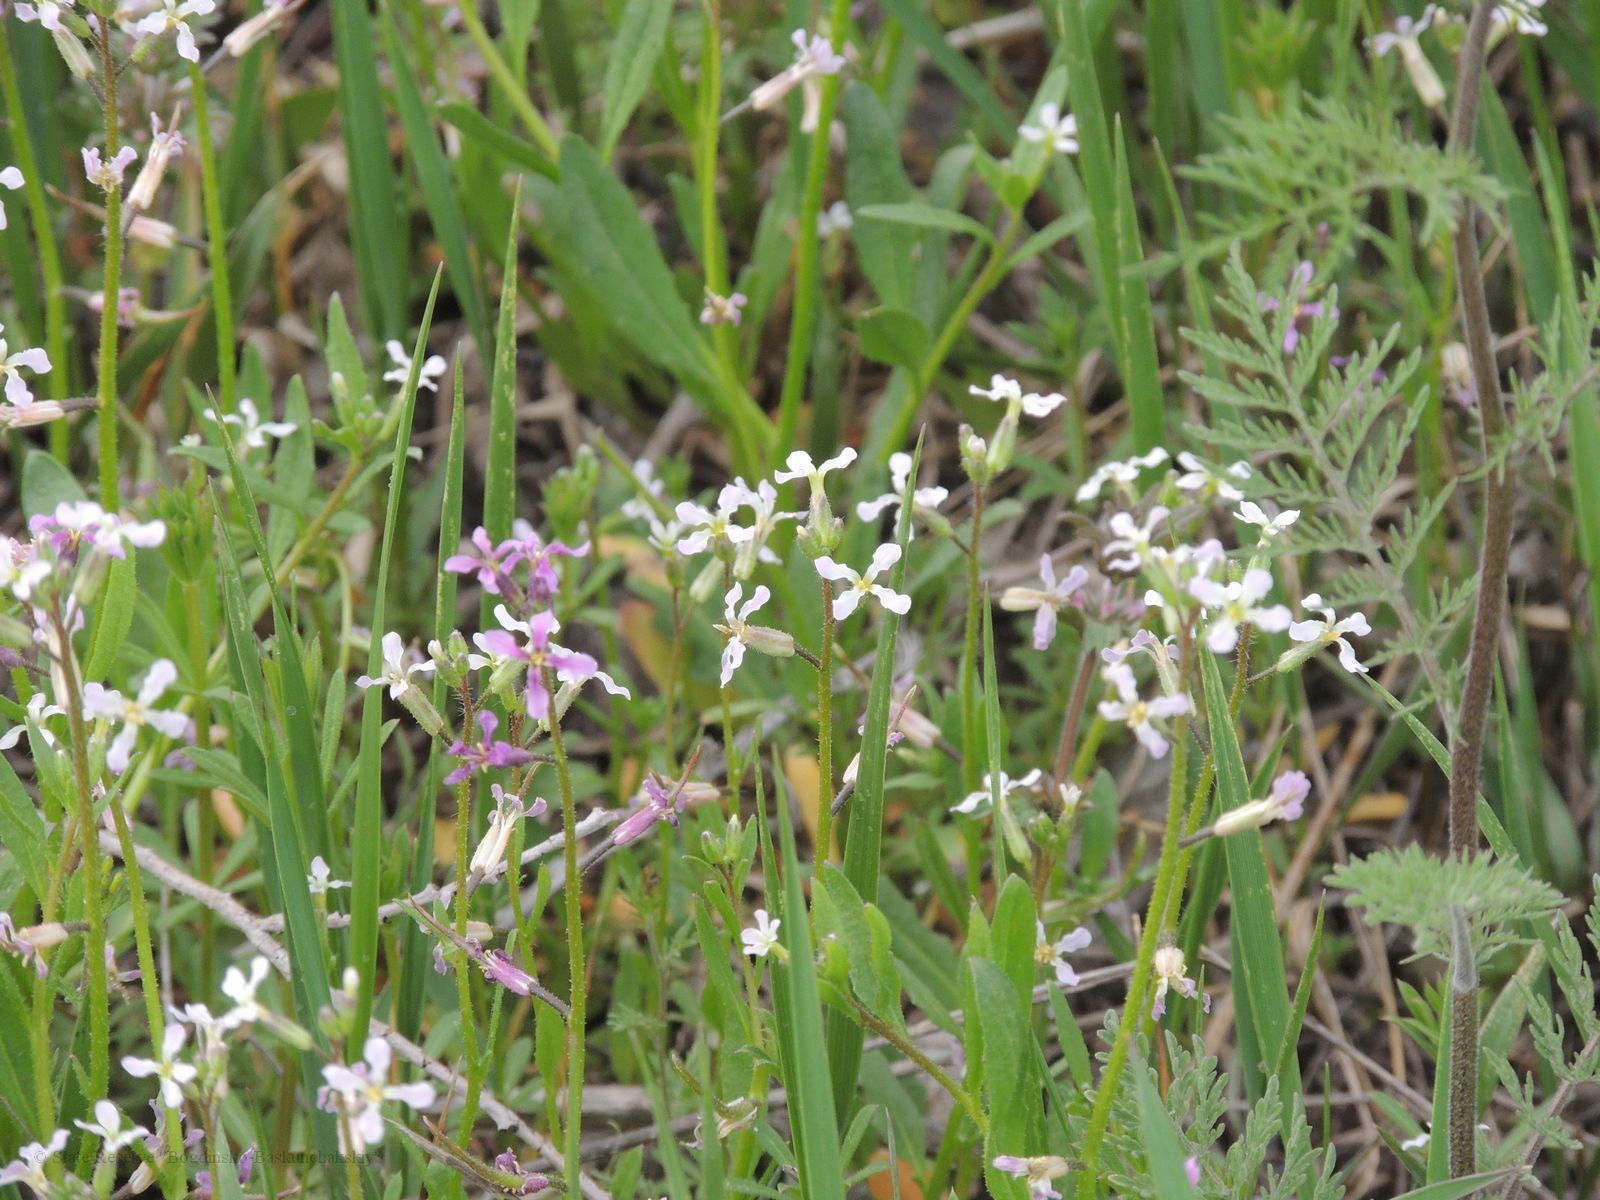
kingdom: Plantae
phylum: Tracheophyta
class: Magnoliopsida
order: Brassicales
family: Brassicaceae
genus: Chorispora
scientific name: Chorispora tenella
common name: Crossflower
